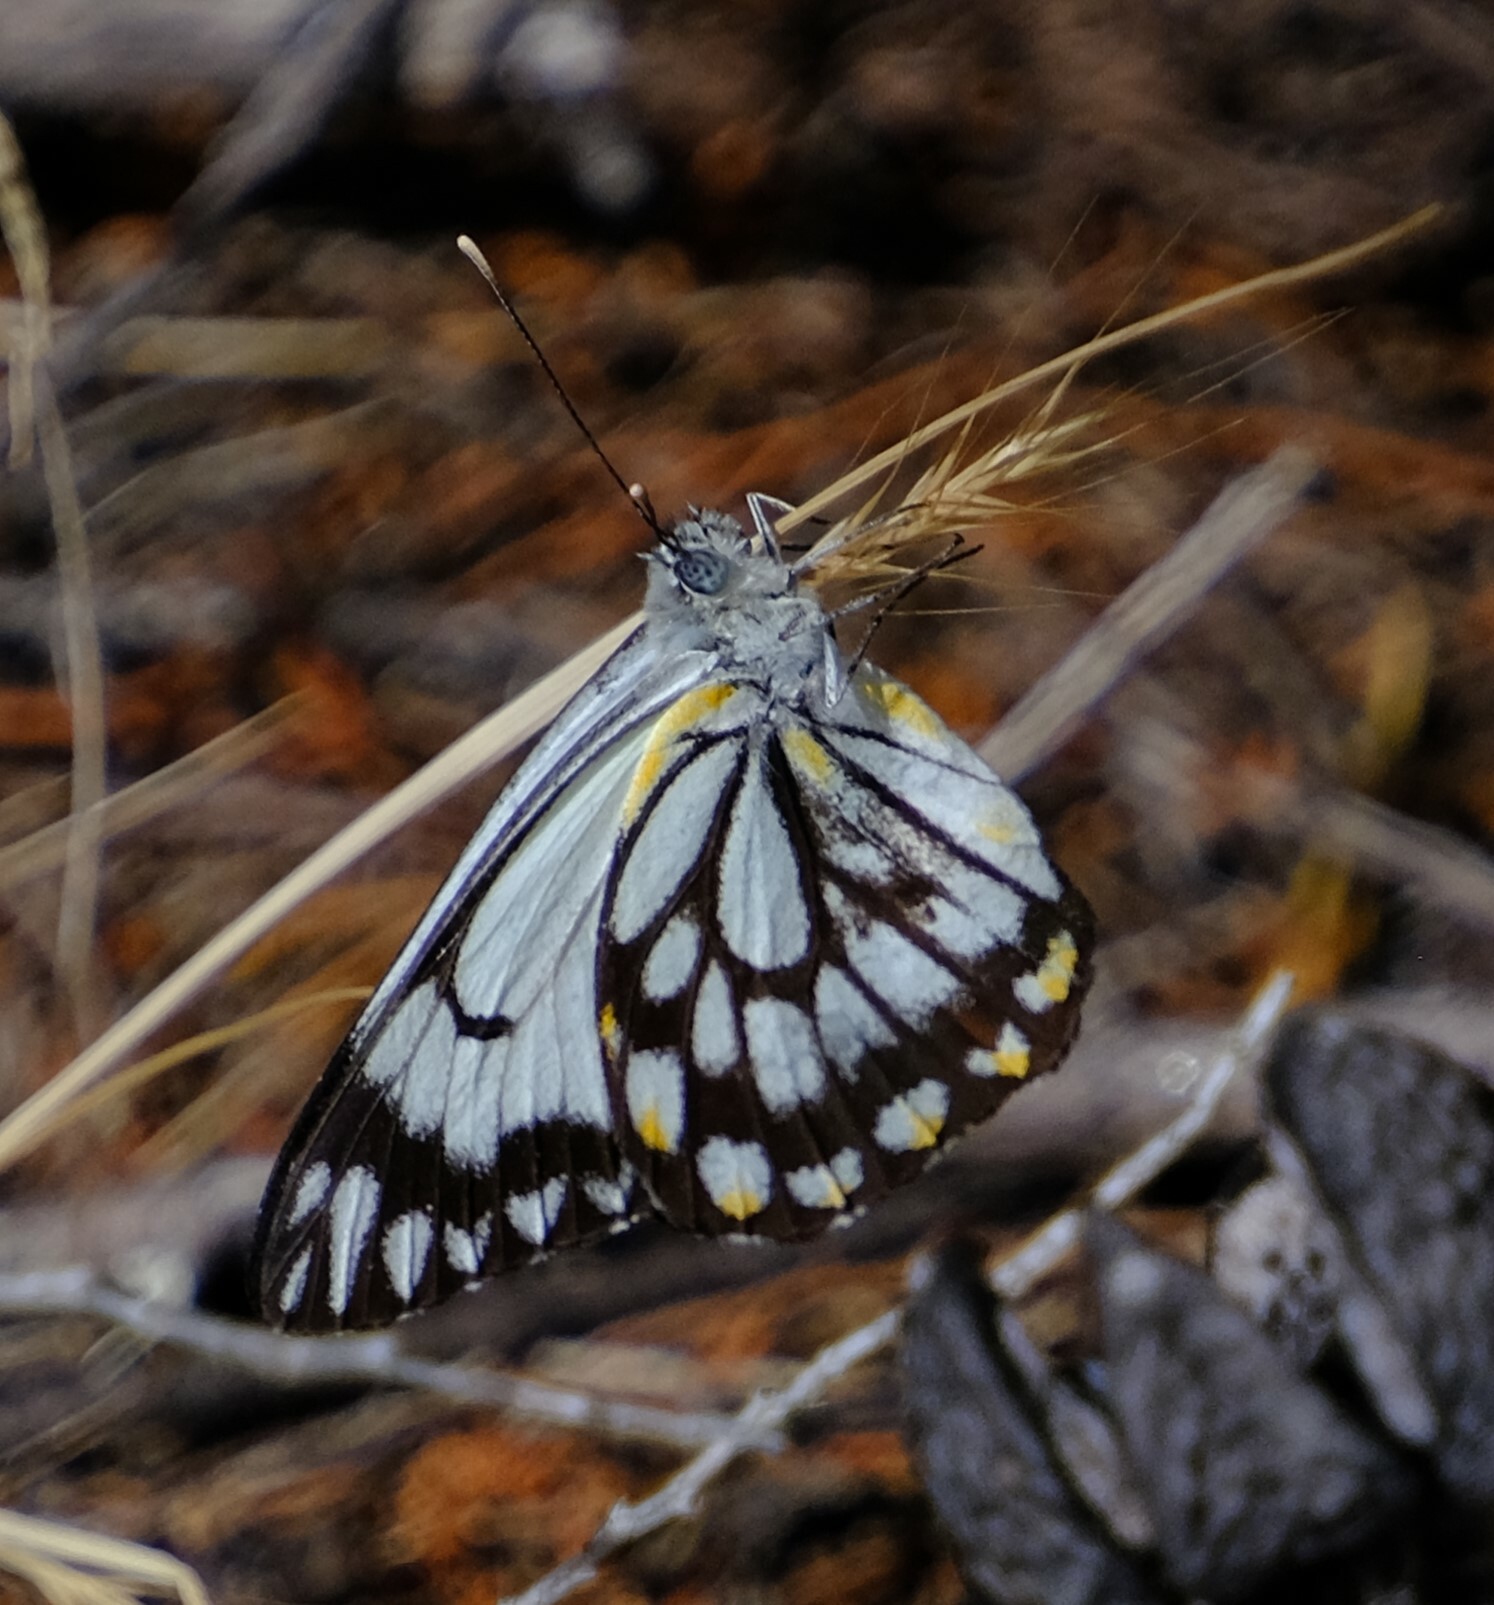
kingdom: Animalia
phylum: Arthropoda
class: Insecta
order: Lepidoptera
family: Pieridae
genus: Belenois
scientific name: Belenois java
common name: Caper white
